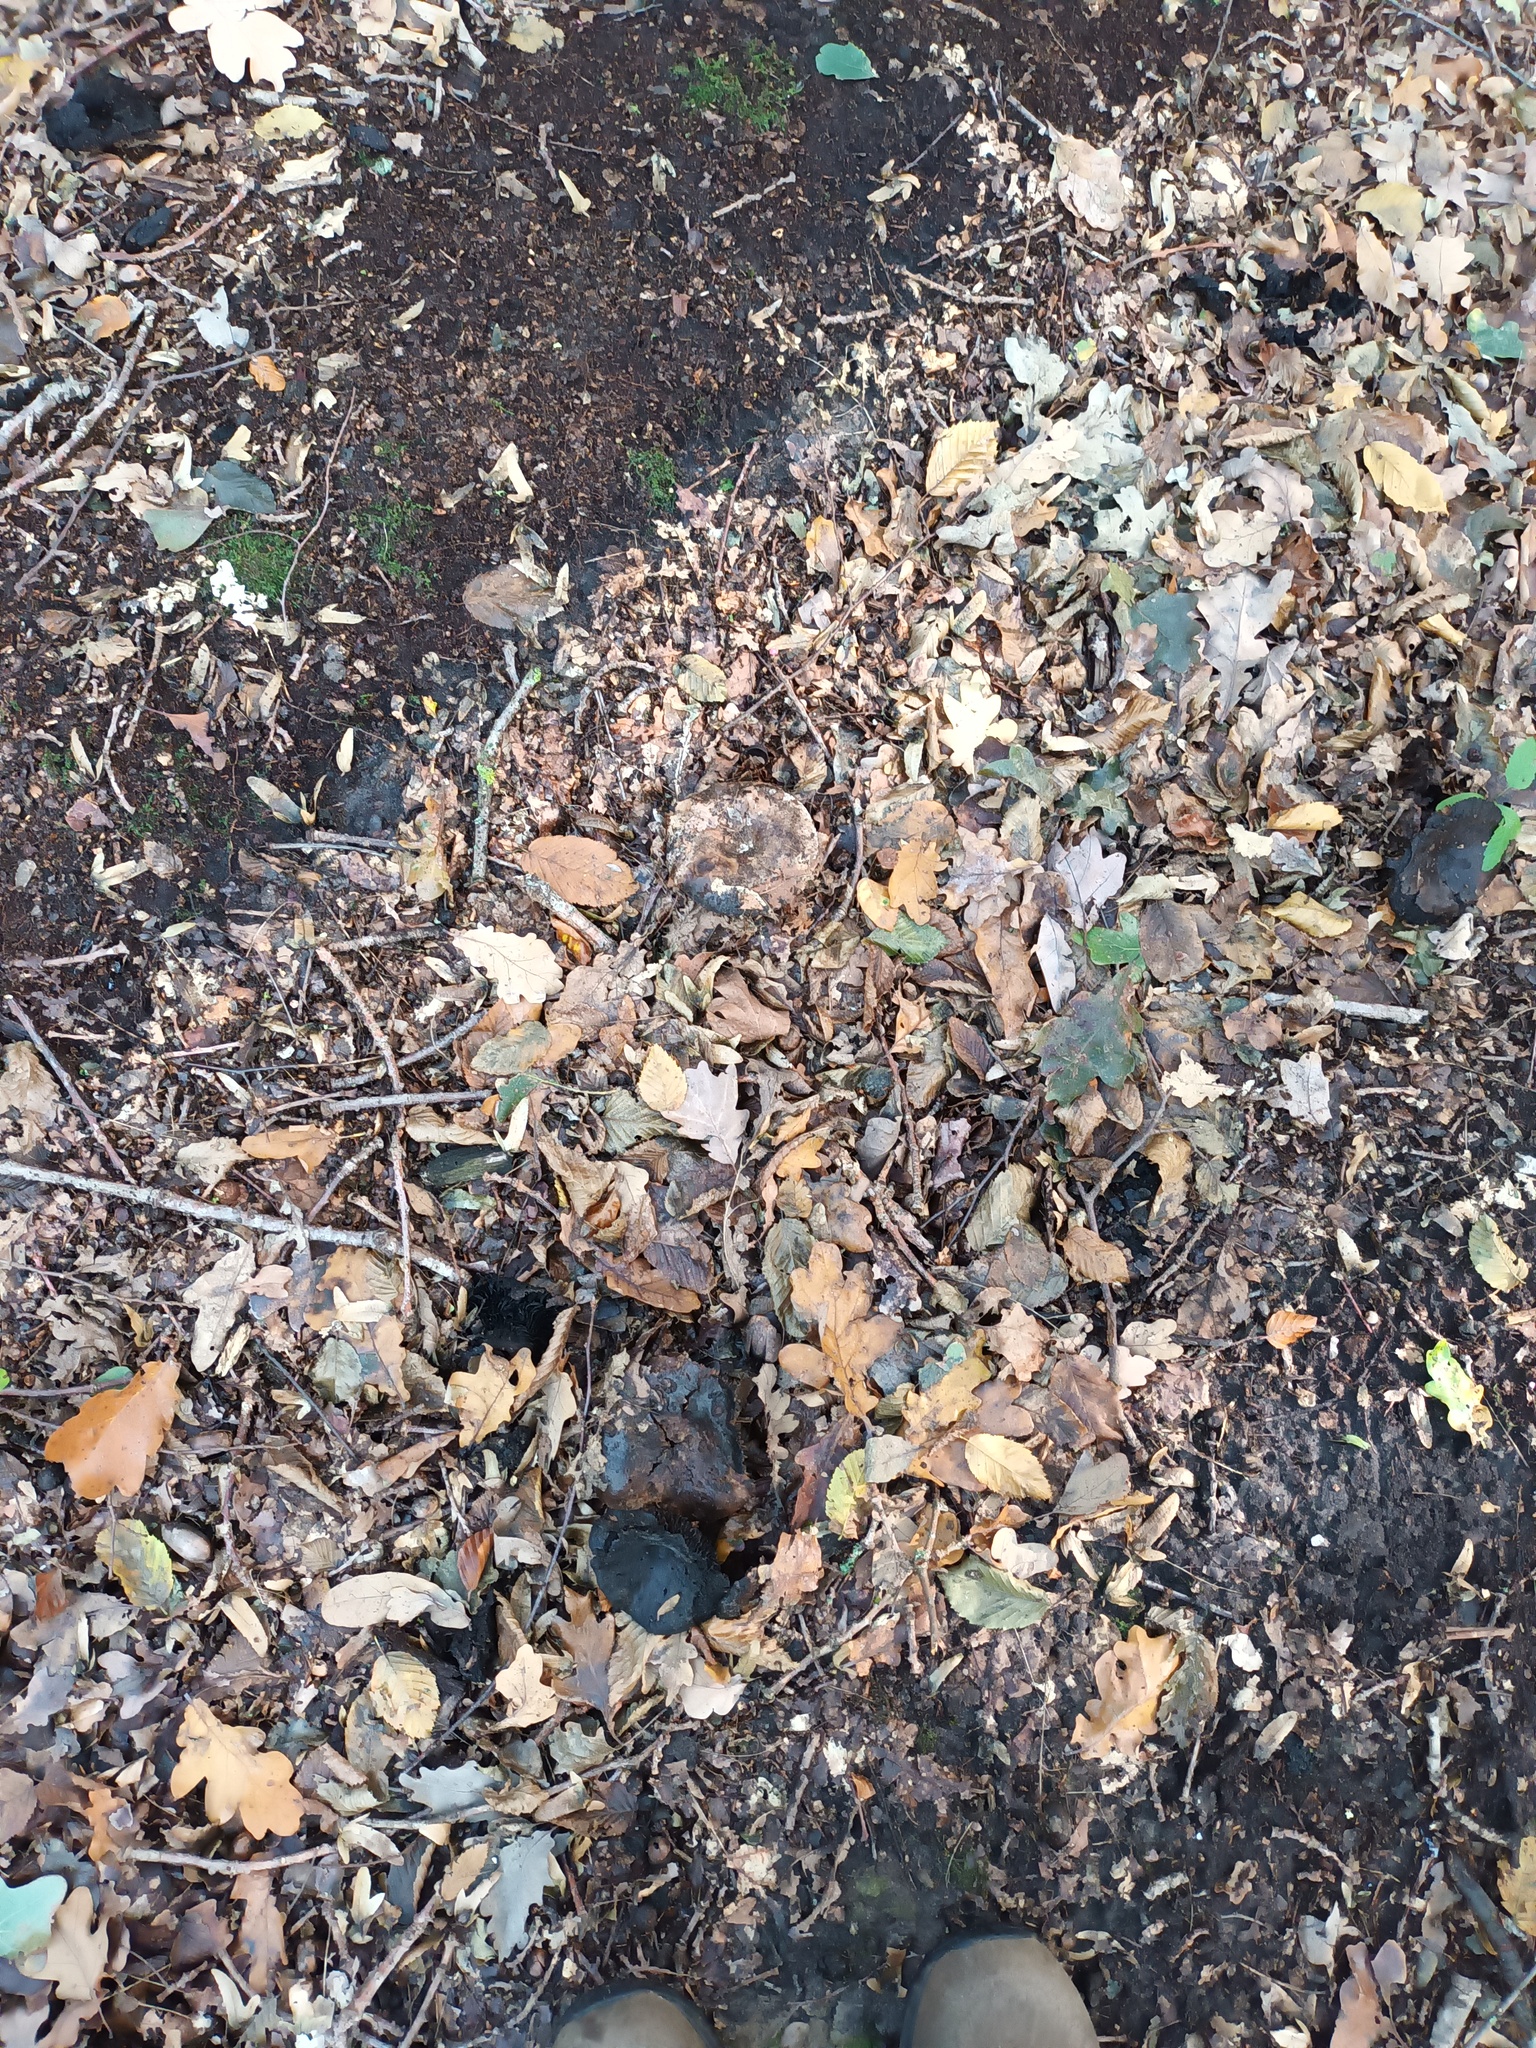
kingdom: Fungi
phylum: Basidiomycota
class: Agaricomycetes
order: Russulales
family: Russulaceae
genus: Russula
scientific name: Russula adusta
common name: Winecork brittlegill
